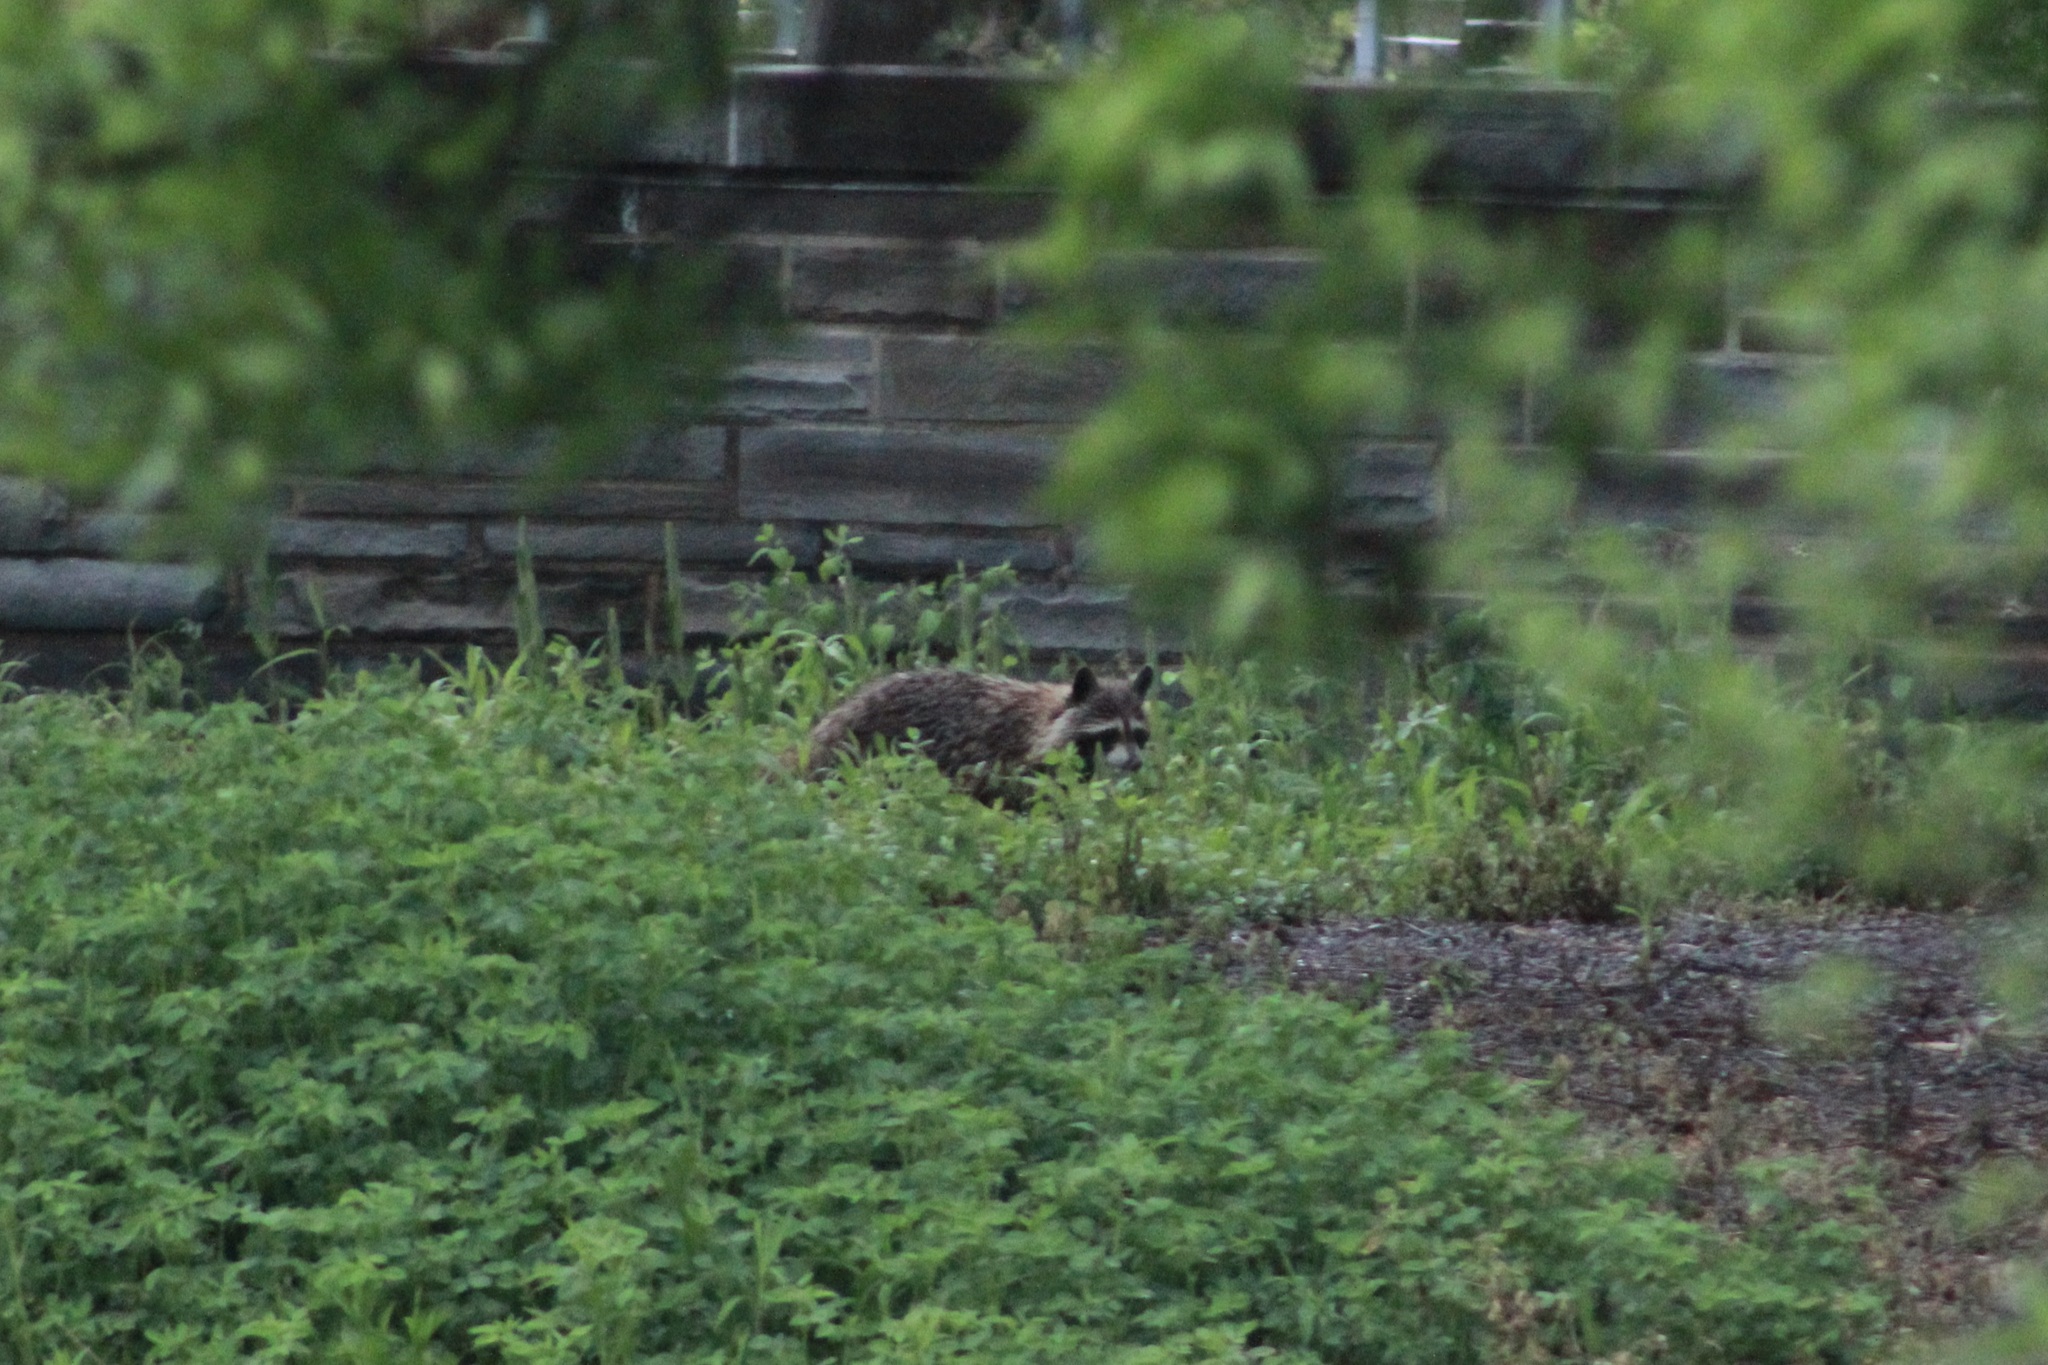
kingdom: Animalia
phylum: Chordata
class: Mammalia
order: Carnivora
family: Procyonidae
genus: Procyon
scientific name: Procyon lotor
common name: Raccoon
